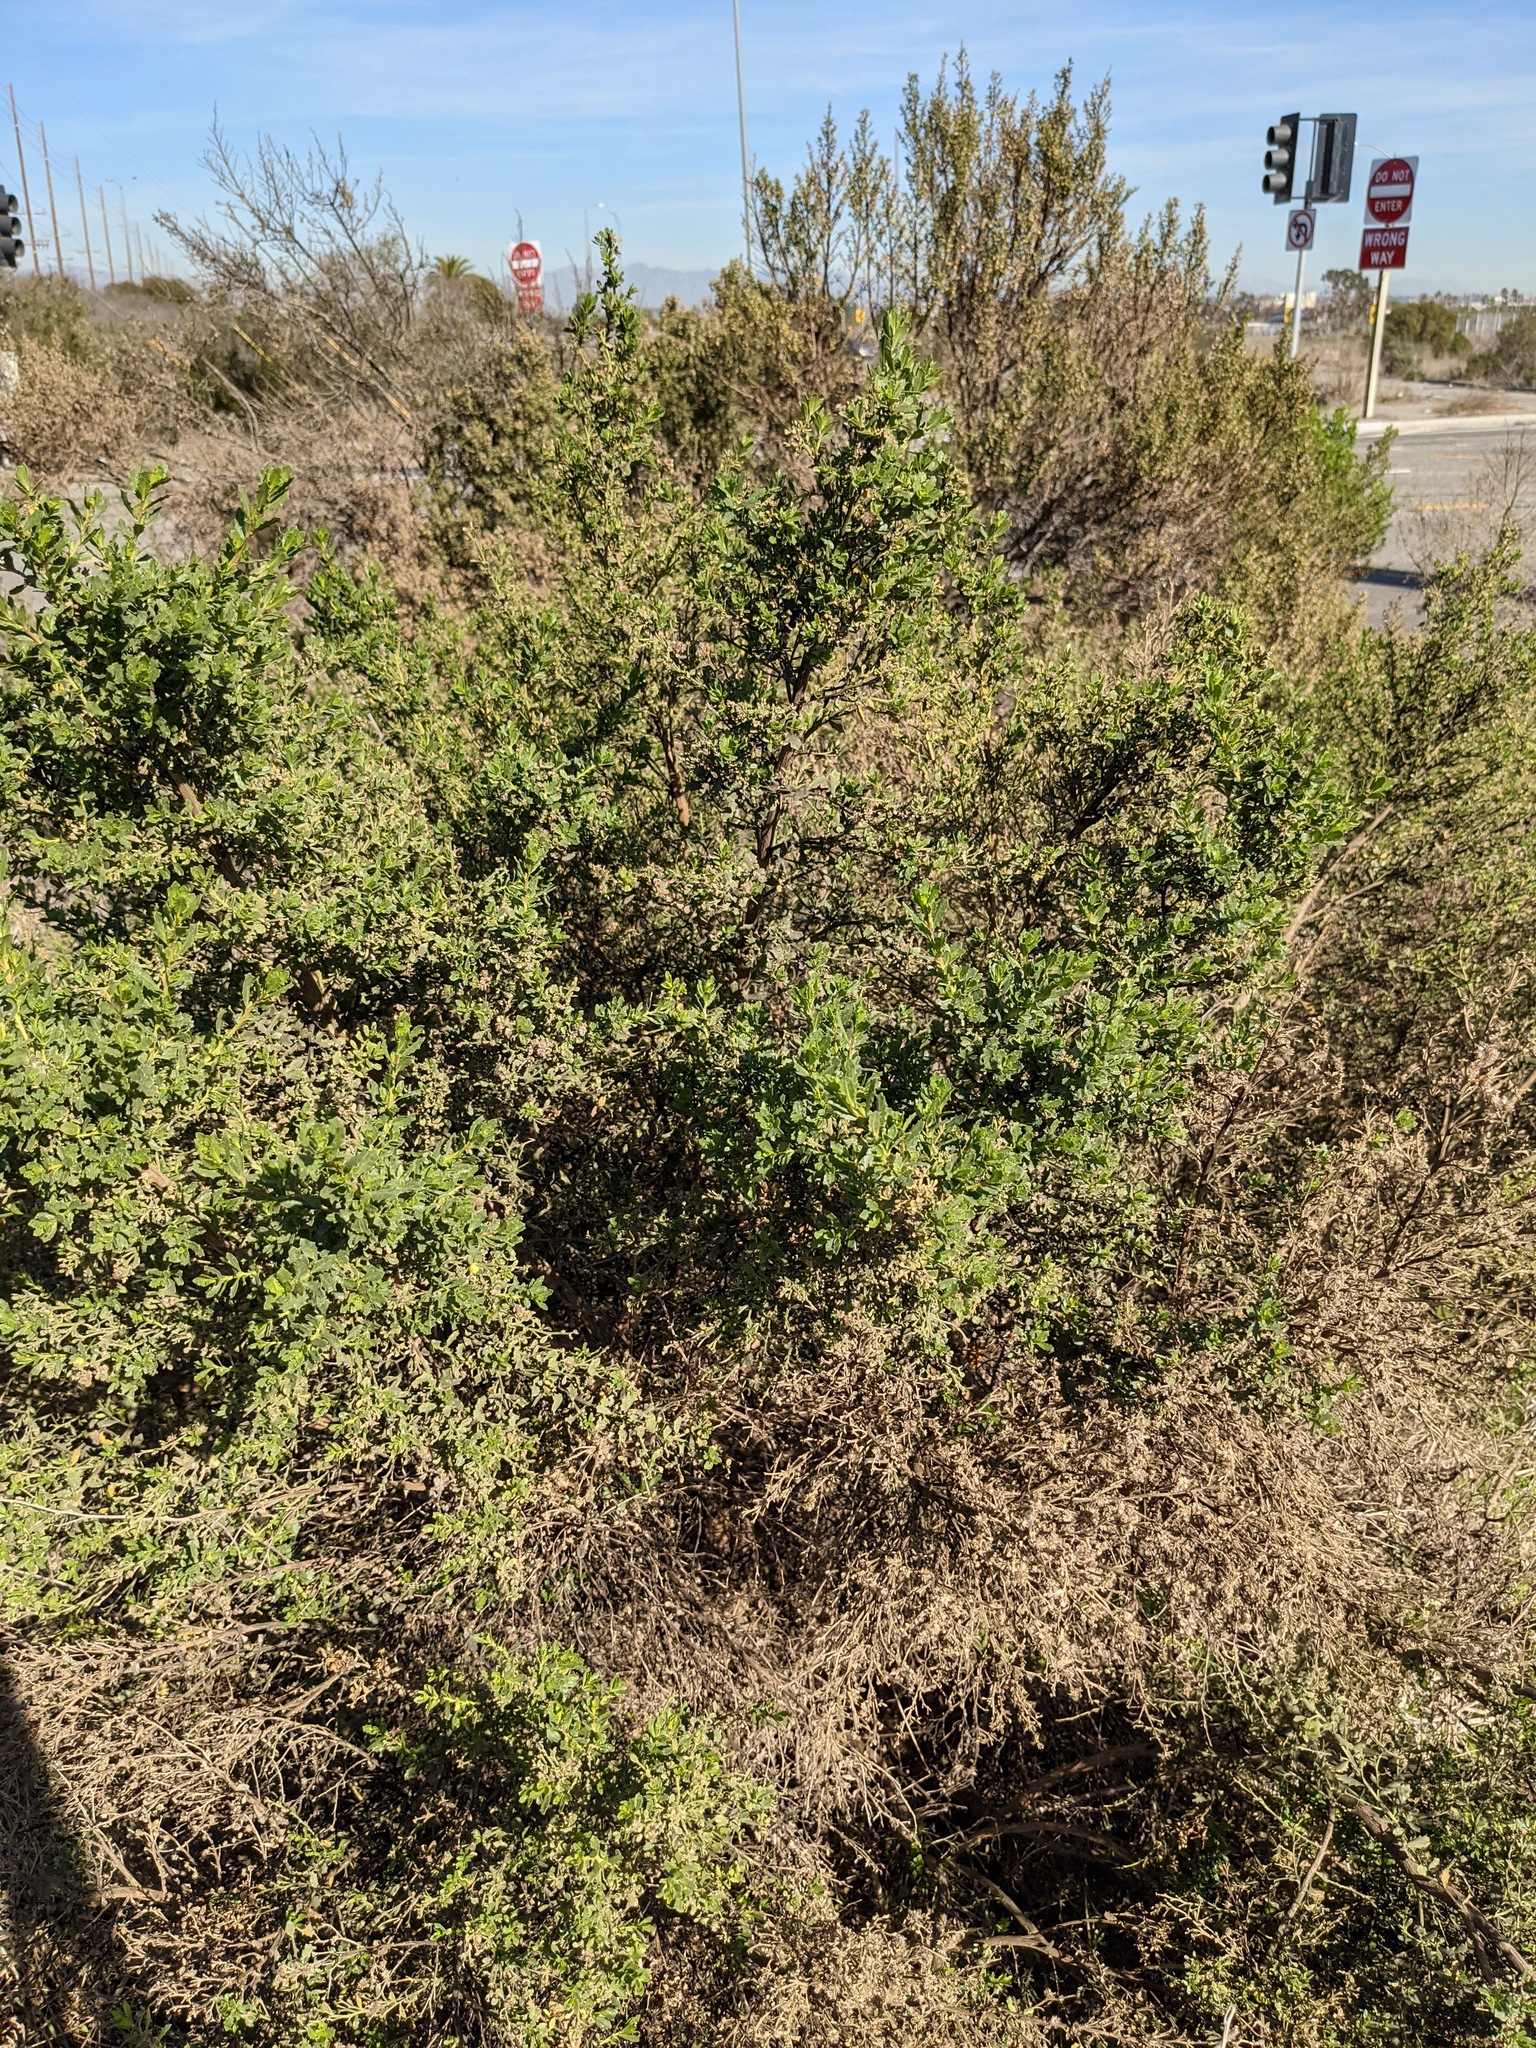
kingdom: Plantae
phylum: Tracheophyta
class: Magnoliopsida
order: Asterales
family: Asteraceae
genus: Baccharis
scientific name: Baccharis pilularis
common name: Coyotebrush
